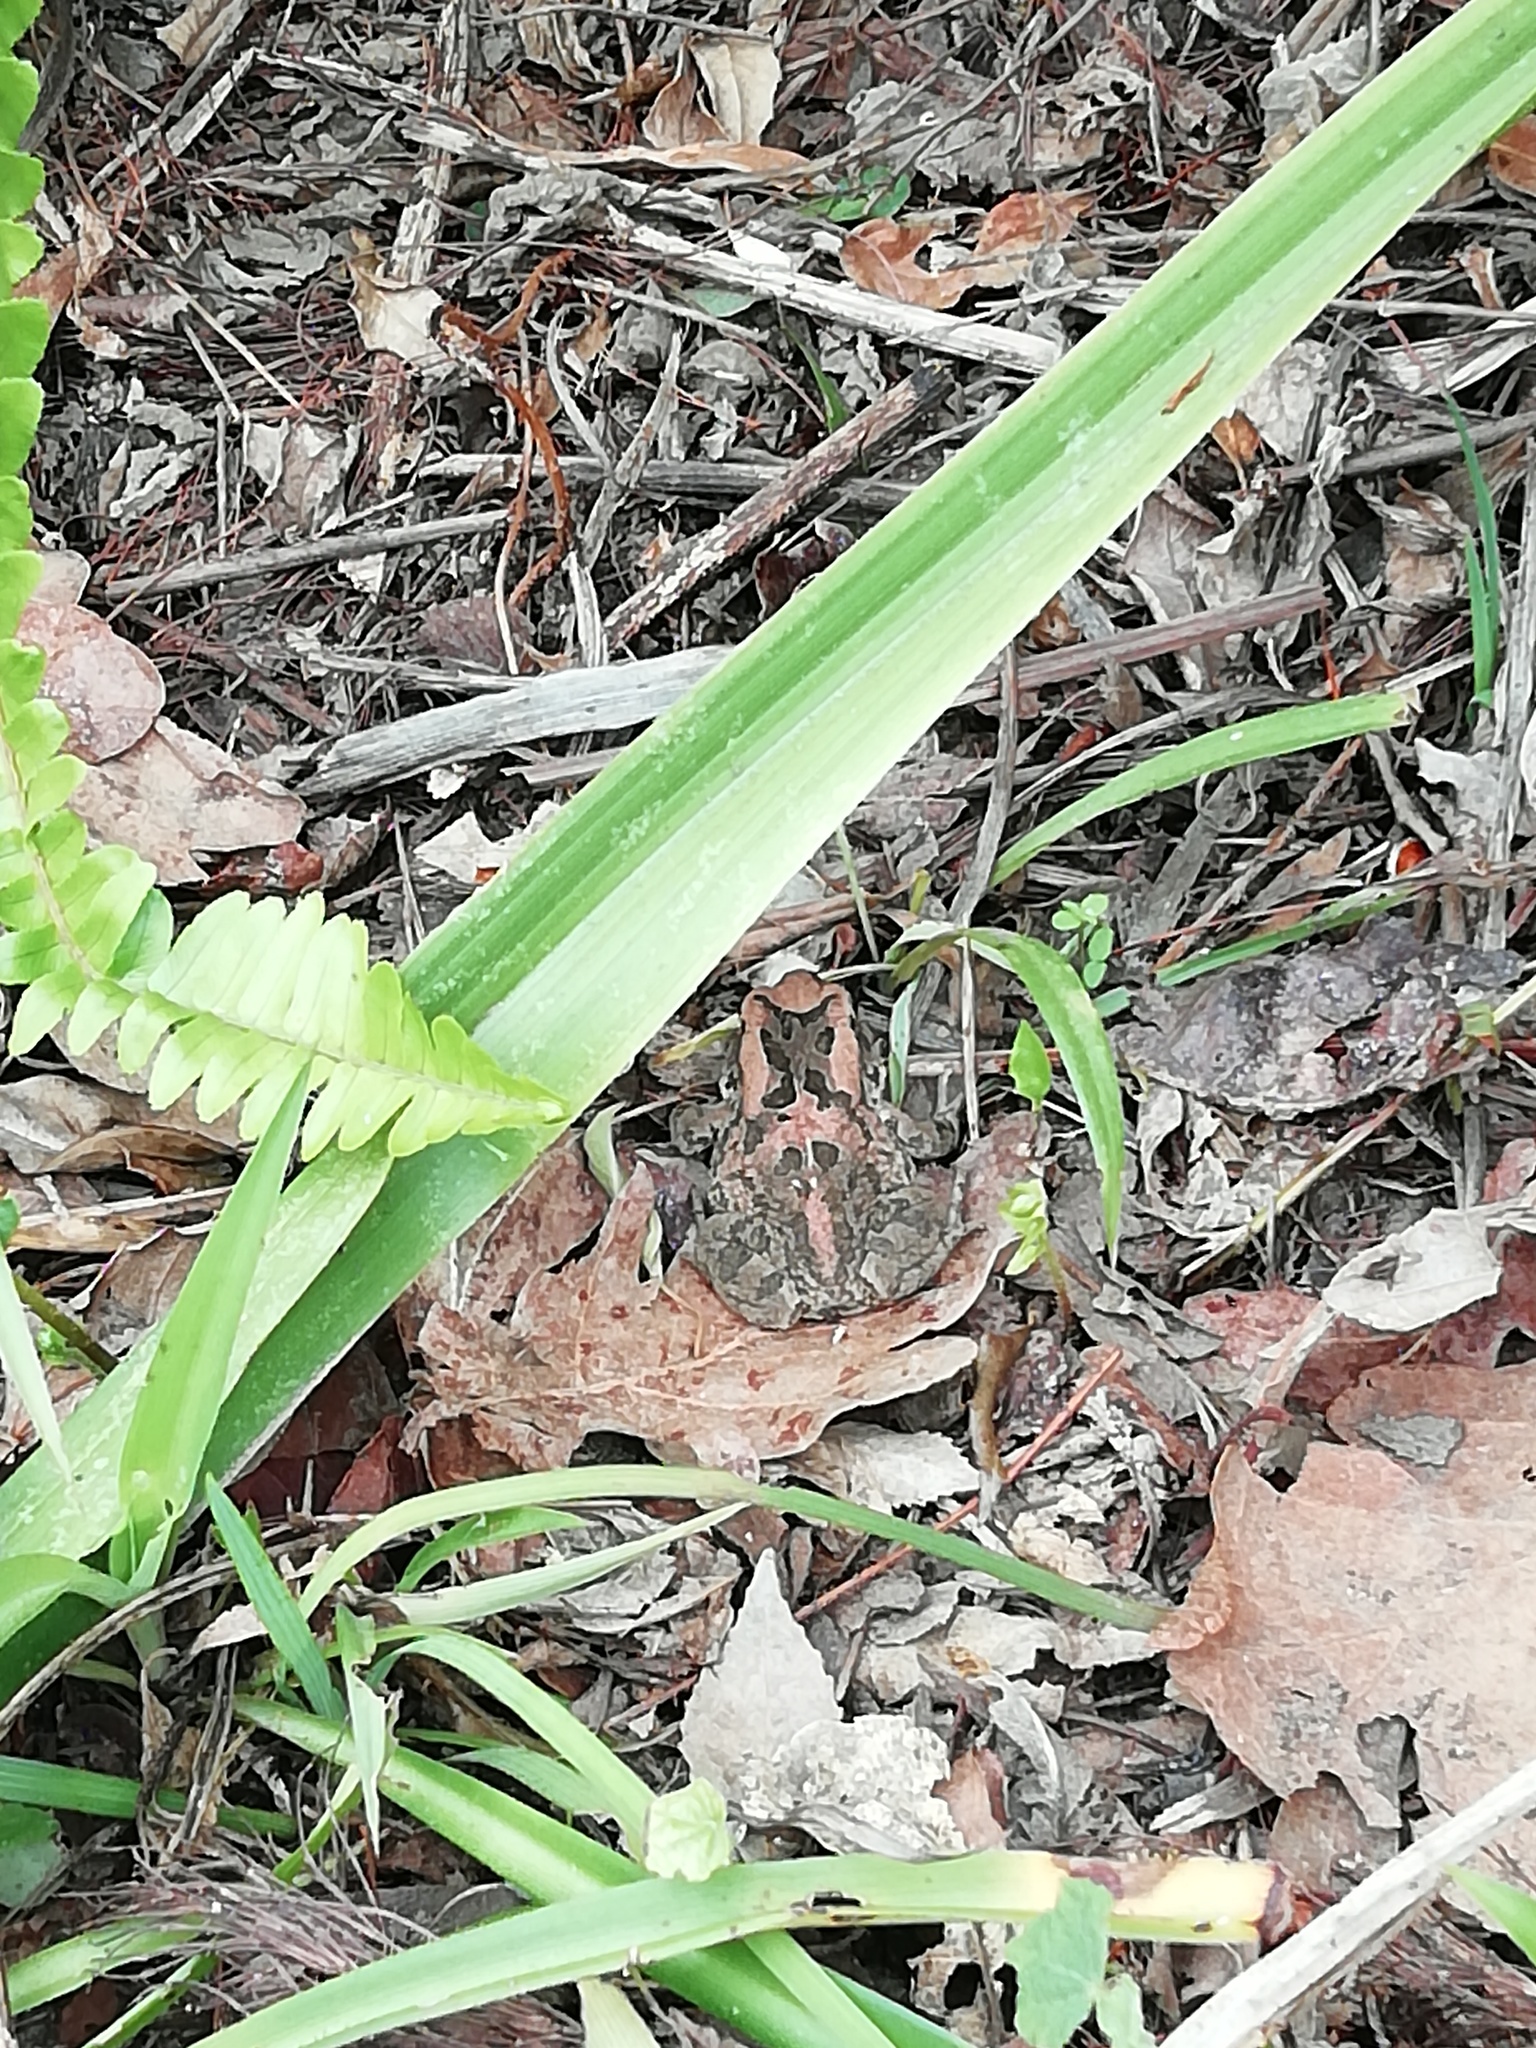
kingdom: Animalia
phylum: Chordata
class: Amphibia
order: Anura
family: Bufonidae
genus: Sclerophrys
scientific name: Sclerophrys capensis
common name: Ranger’s toad
